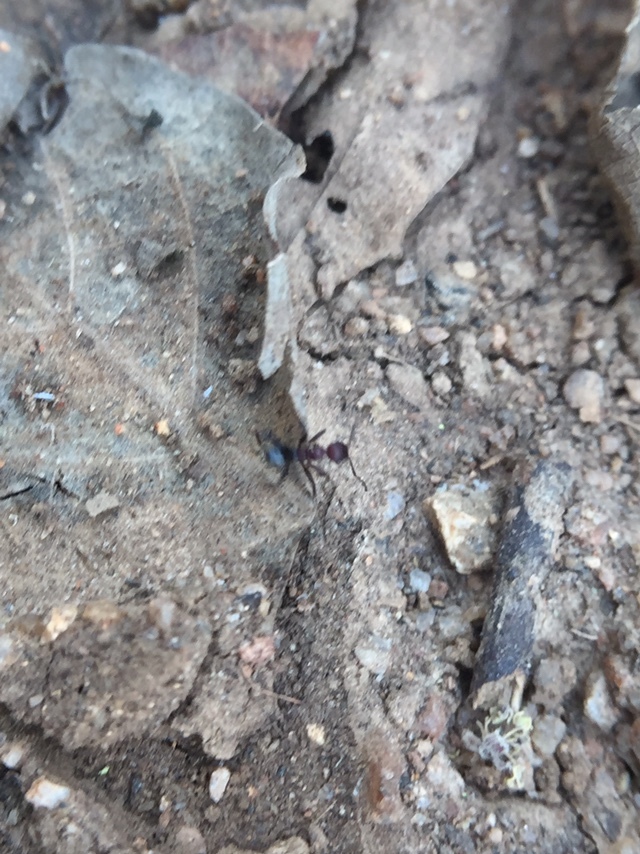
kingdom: Animalia
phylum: Arthropoda
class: Insecta
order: Hymenoptera
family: Formicidae
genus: Pheidole
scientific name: Pheidole sharpi
